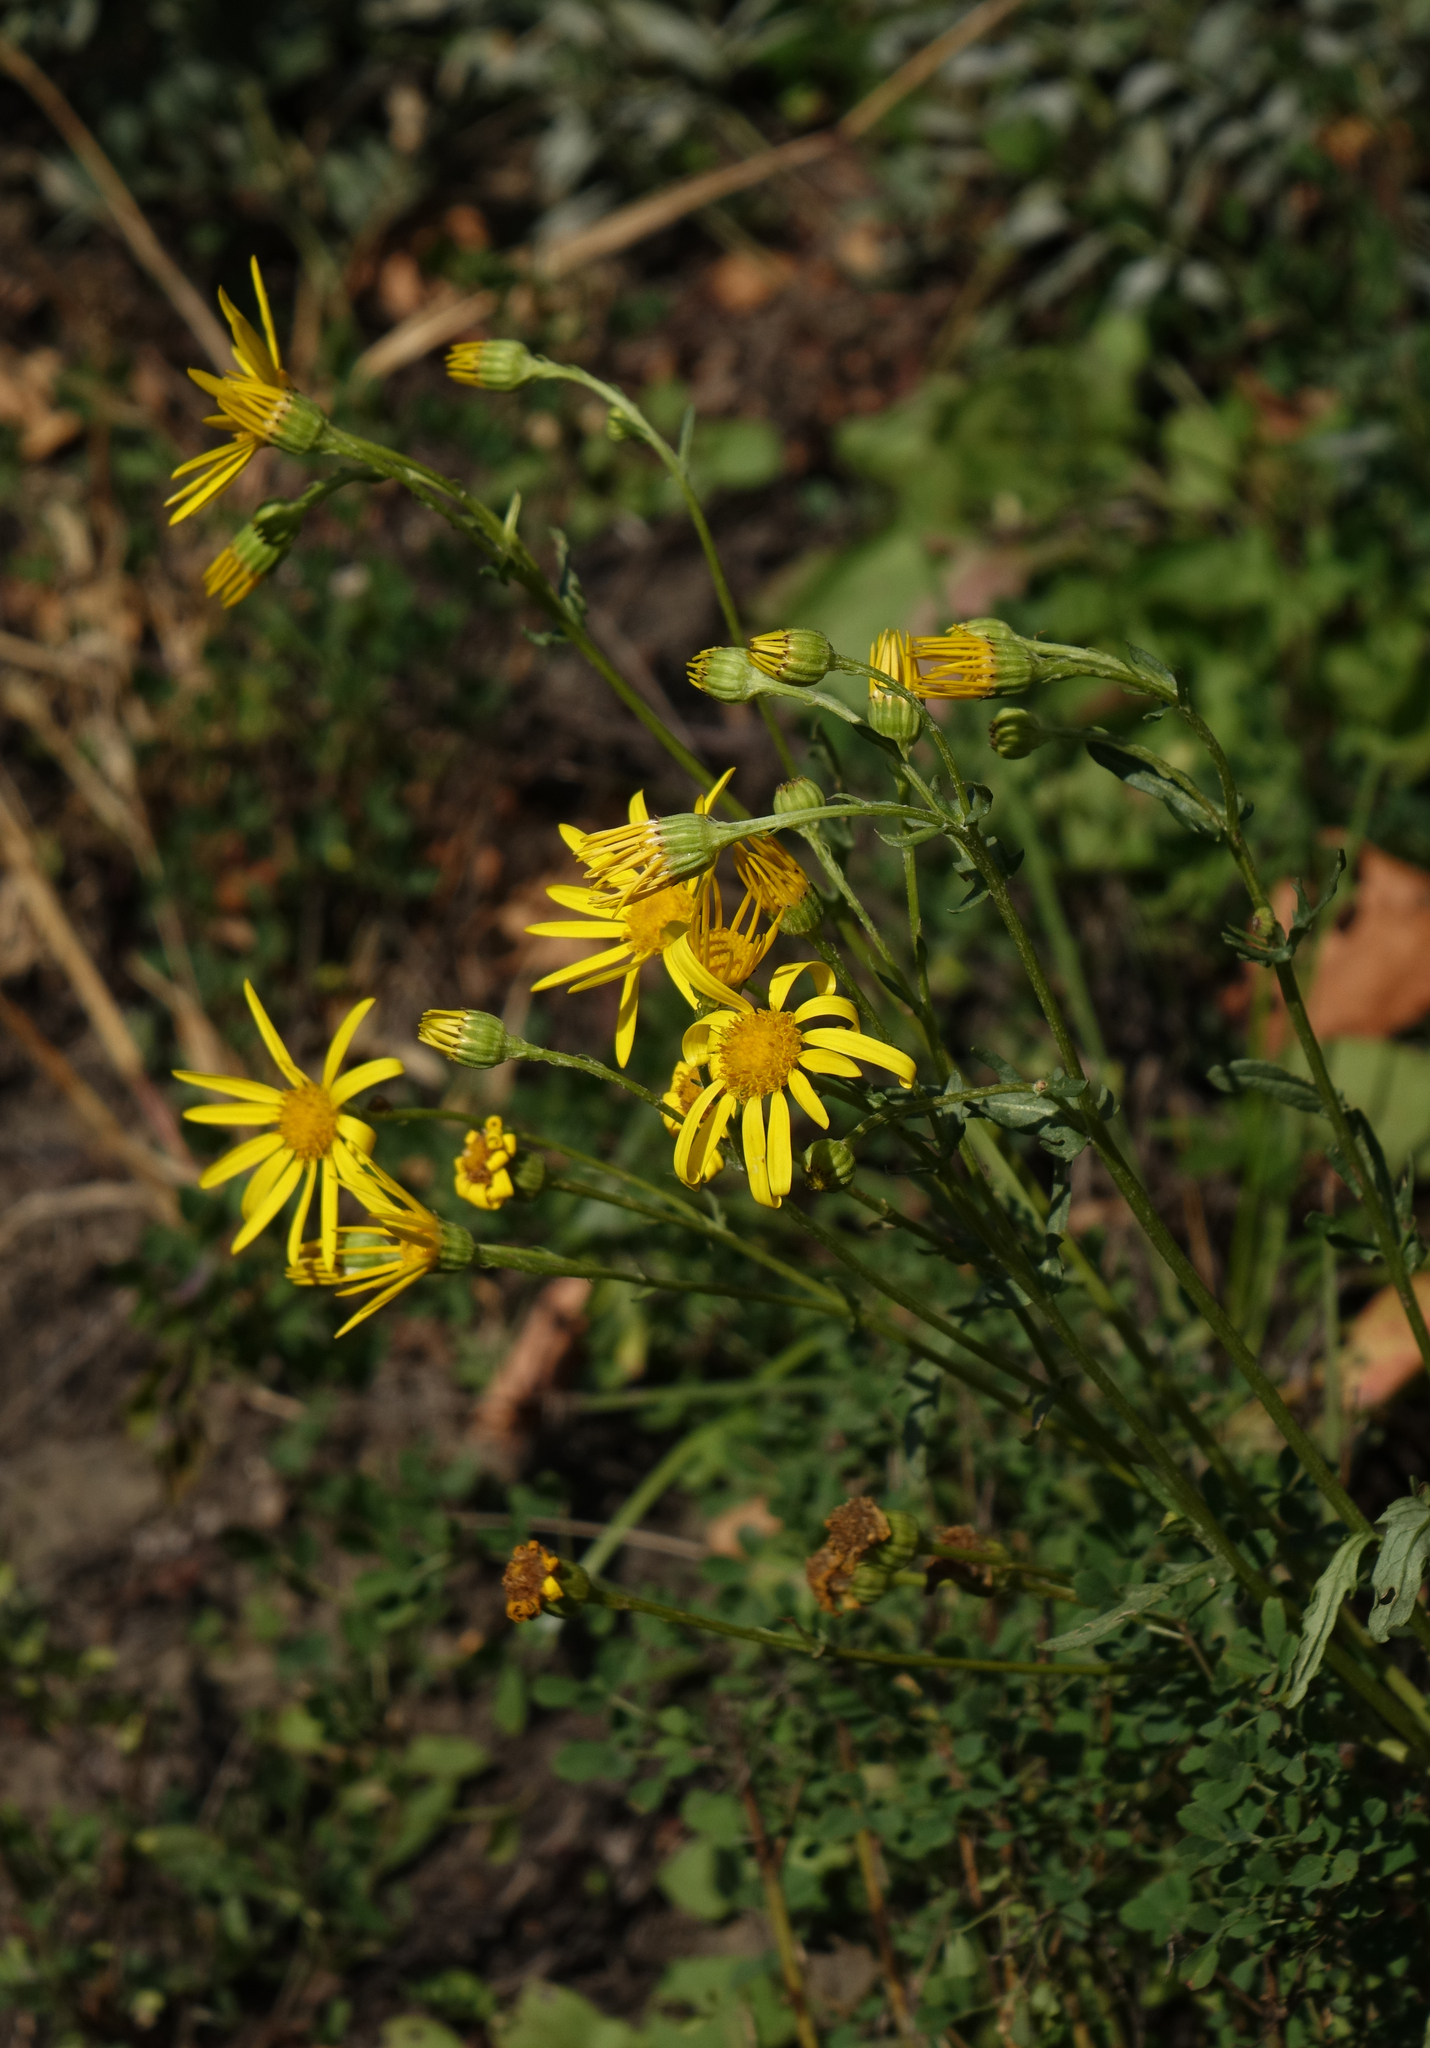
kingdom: Plantae
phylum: Tracheophyta
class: Magnoliopsida
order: Asterales
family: Asteraceae
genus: Jacobaea
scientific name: Jacobaea vulgaris
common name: Stinking willie
